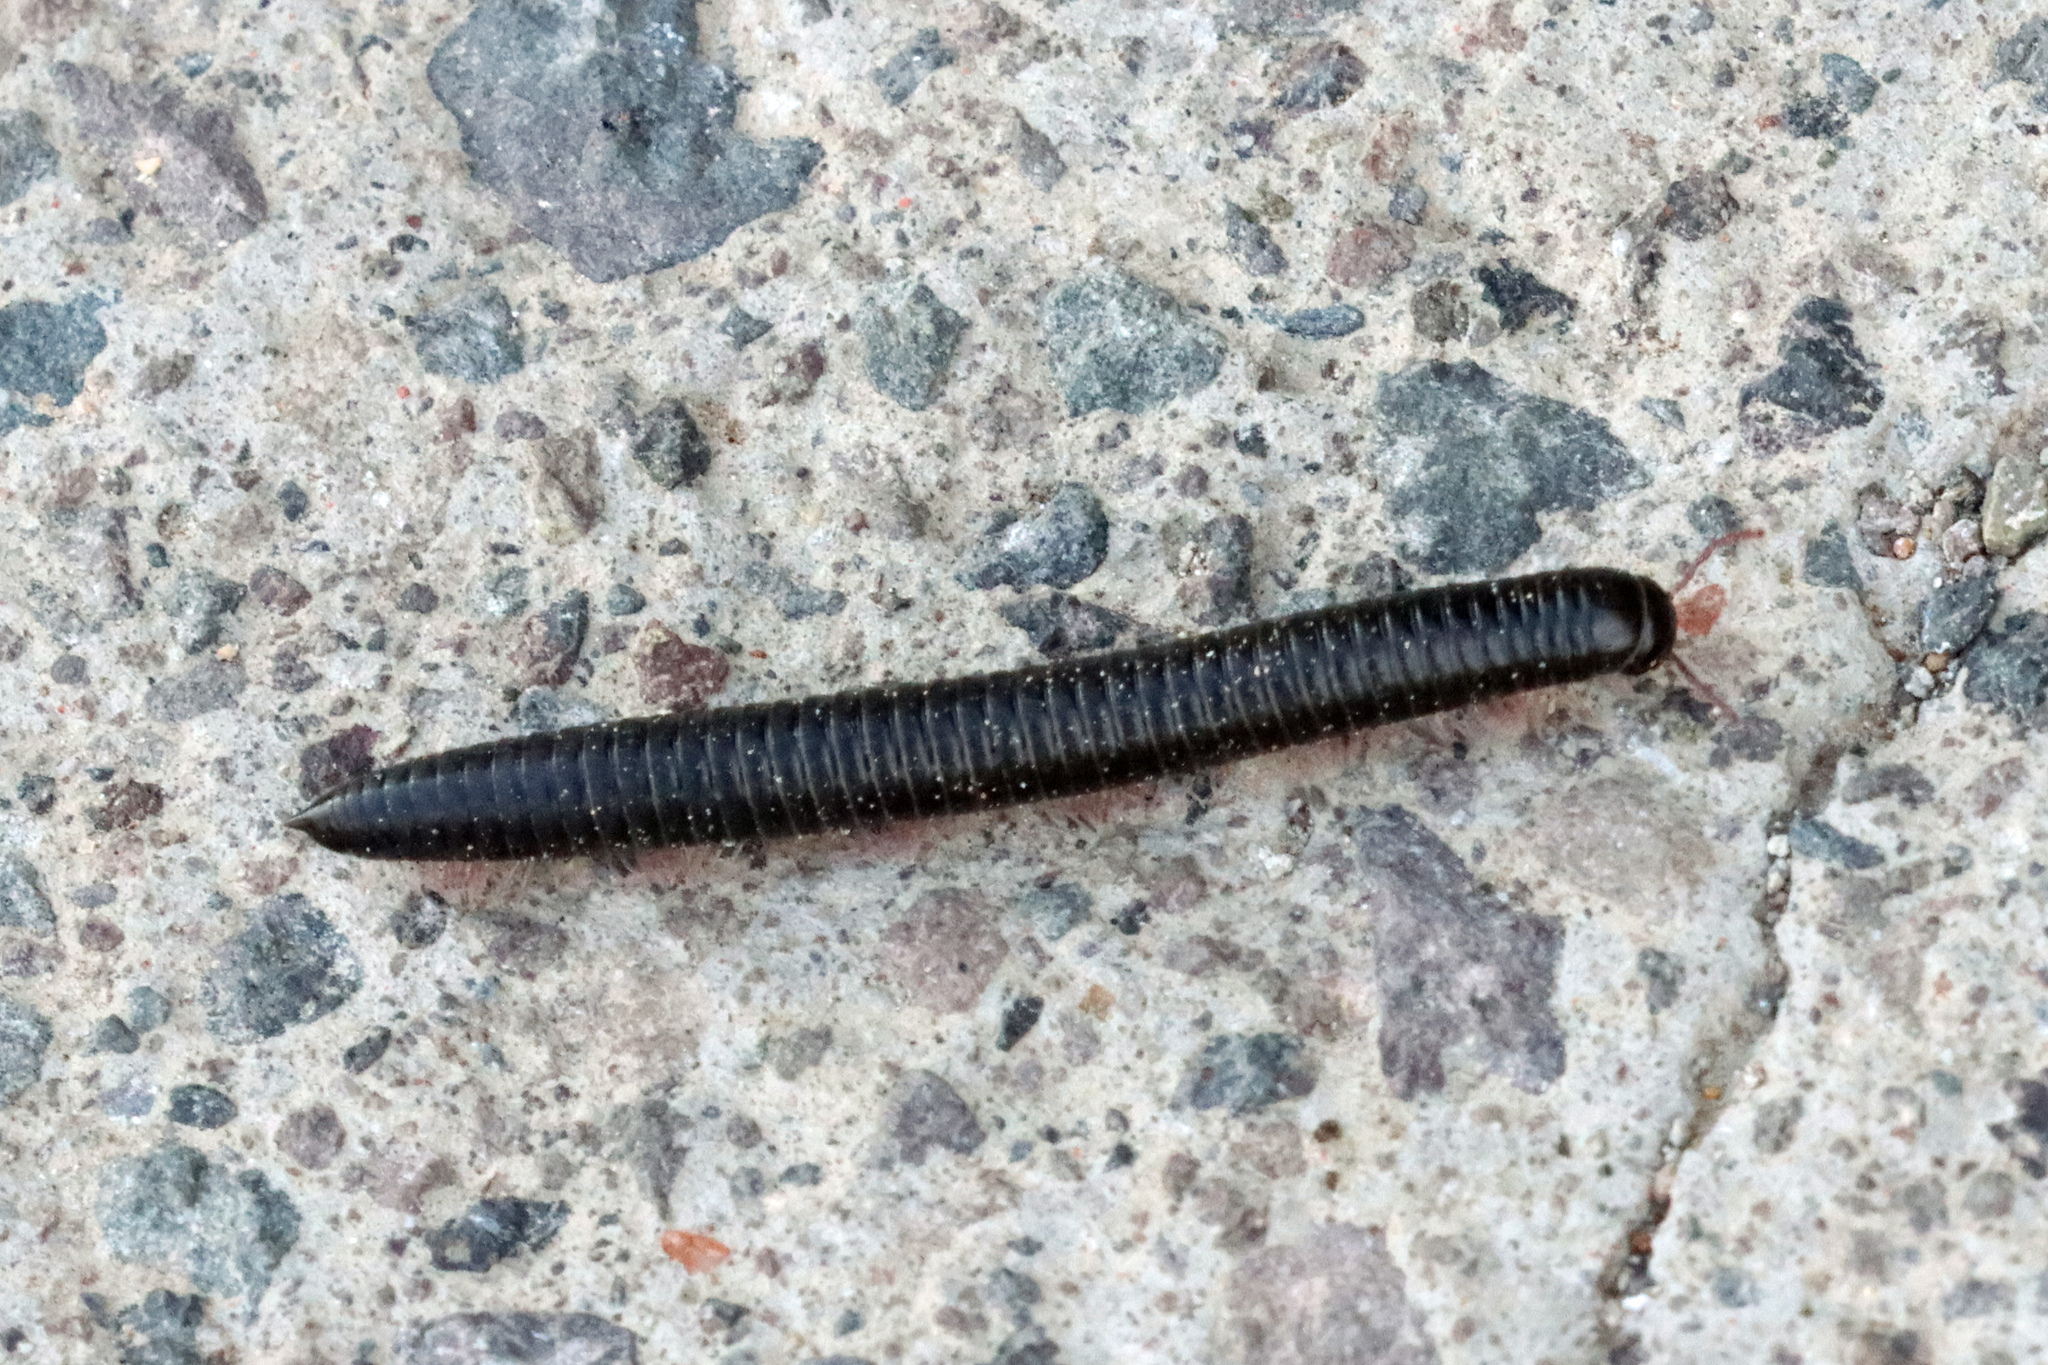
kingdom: Animalia
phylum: Arthropoda
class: Diplopoda
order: Julida
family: Julidae
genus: Ommatoiulus
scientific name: Ommatoiulus moreleti
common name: Portuguese millipede
